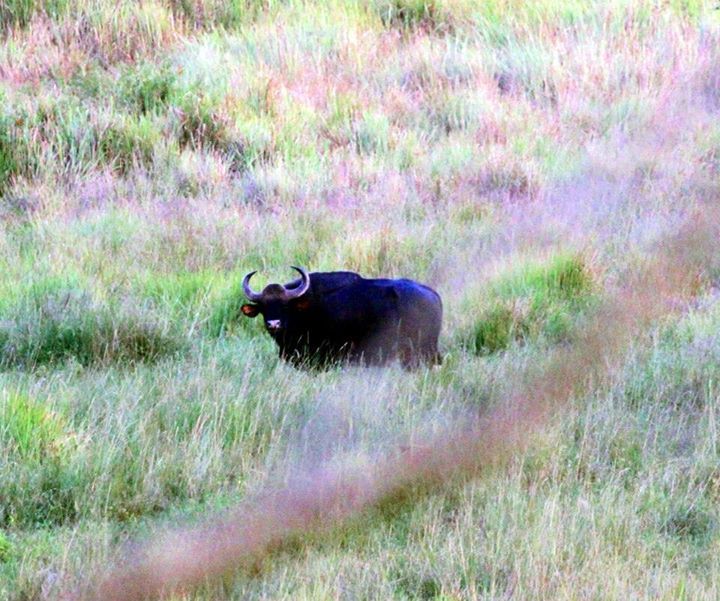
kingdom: Animalia
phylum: Chordata
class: Mammalia
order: Artiodactyla
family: Bovidae
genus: Bos
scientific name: Bos frontalis
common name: Gaur
